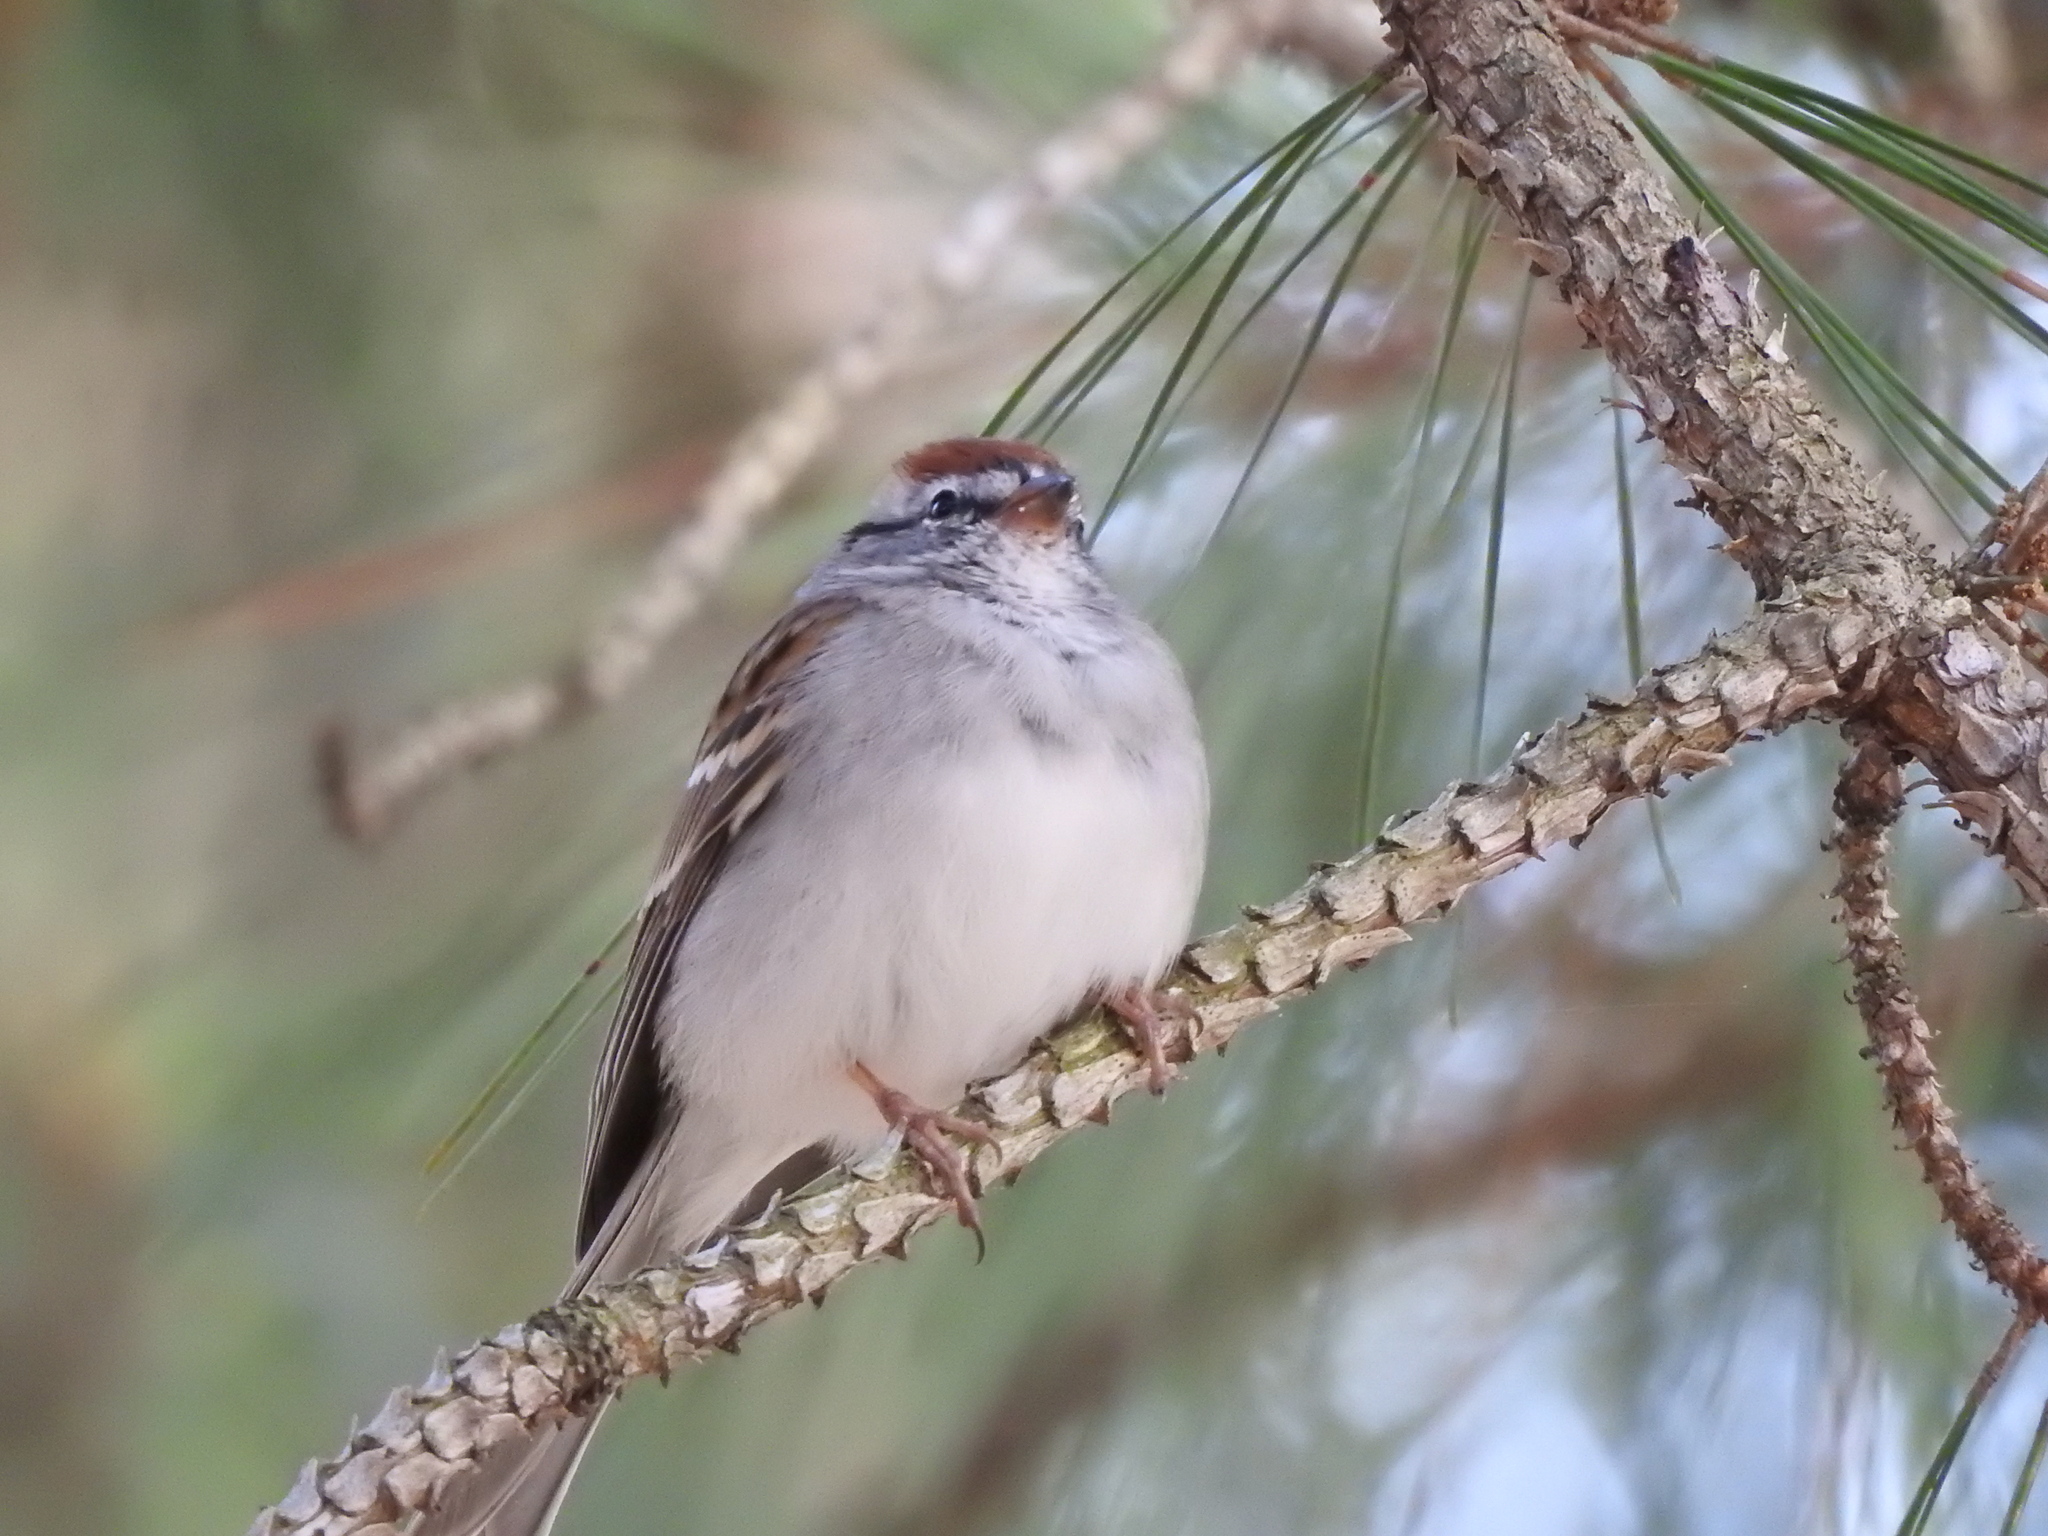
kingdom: Animalia
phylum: Chordata
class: Aves
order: Passeriformes
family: Passerellidae
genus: Spizella
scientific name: Spizella passerina
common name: Chipping sparrow
